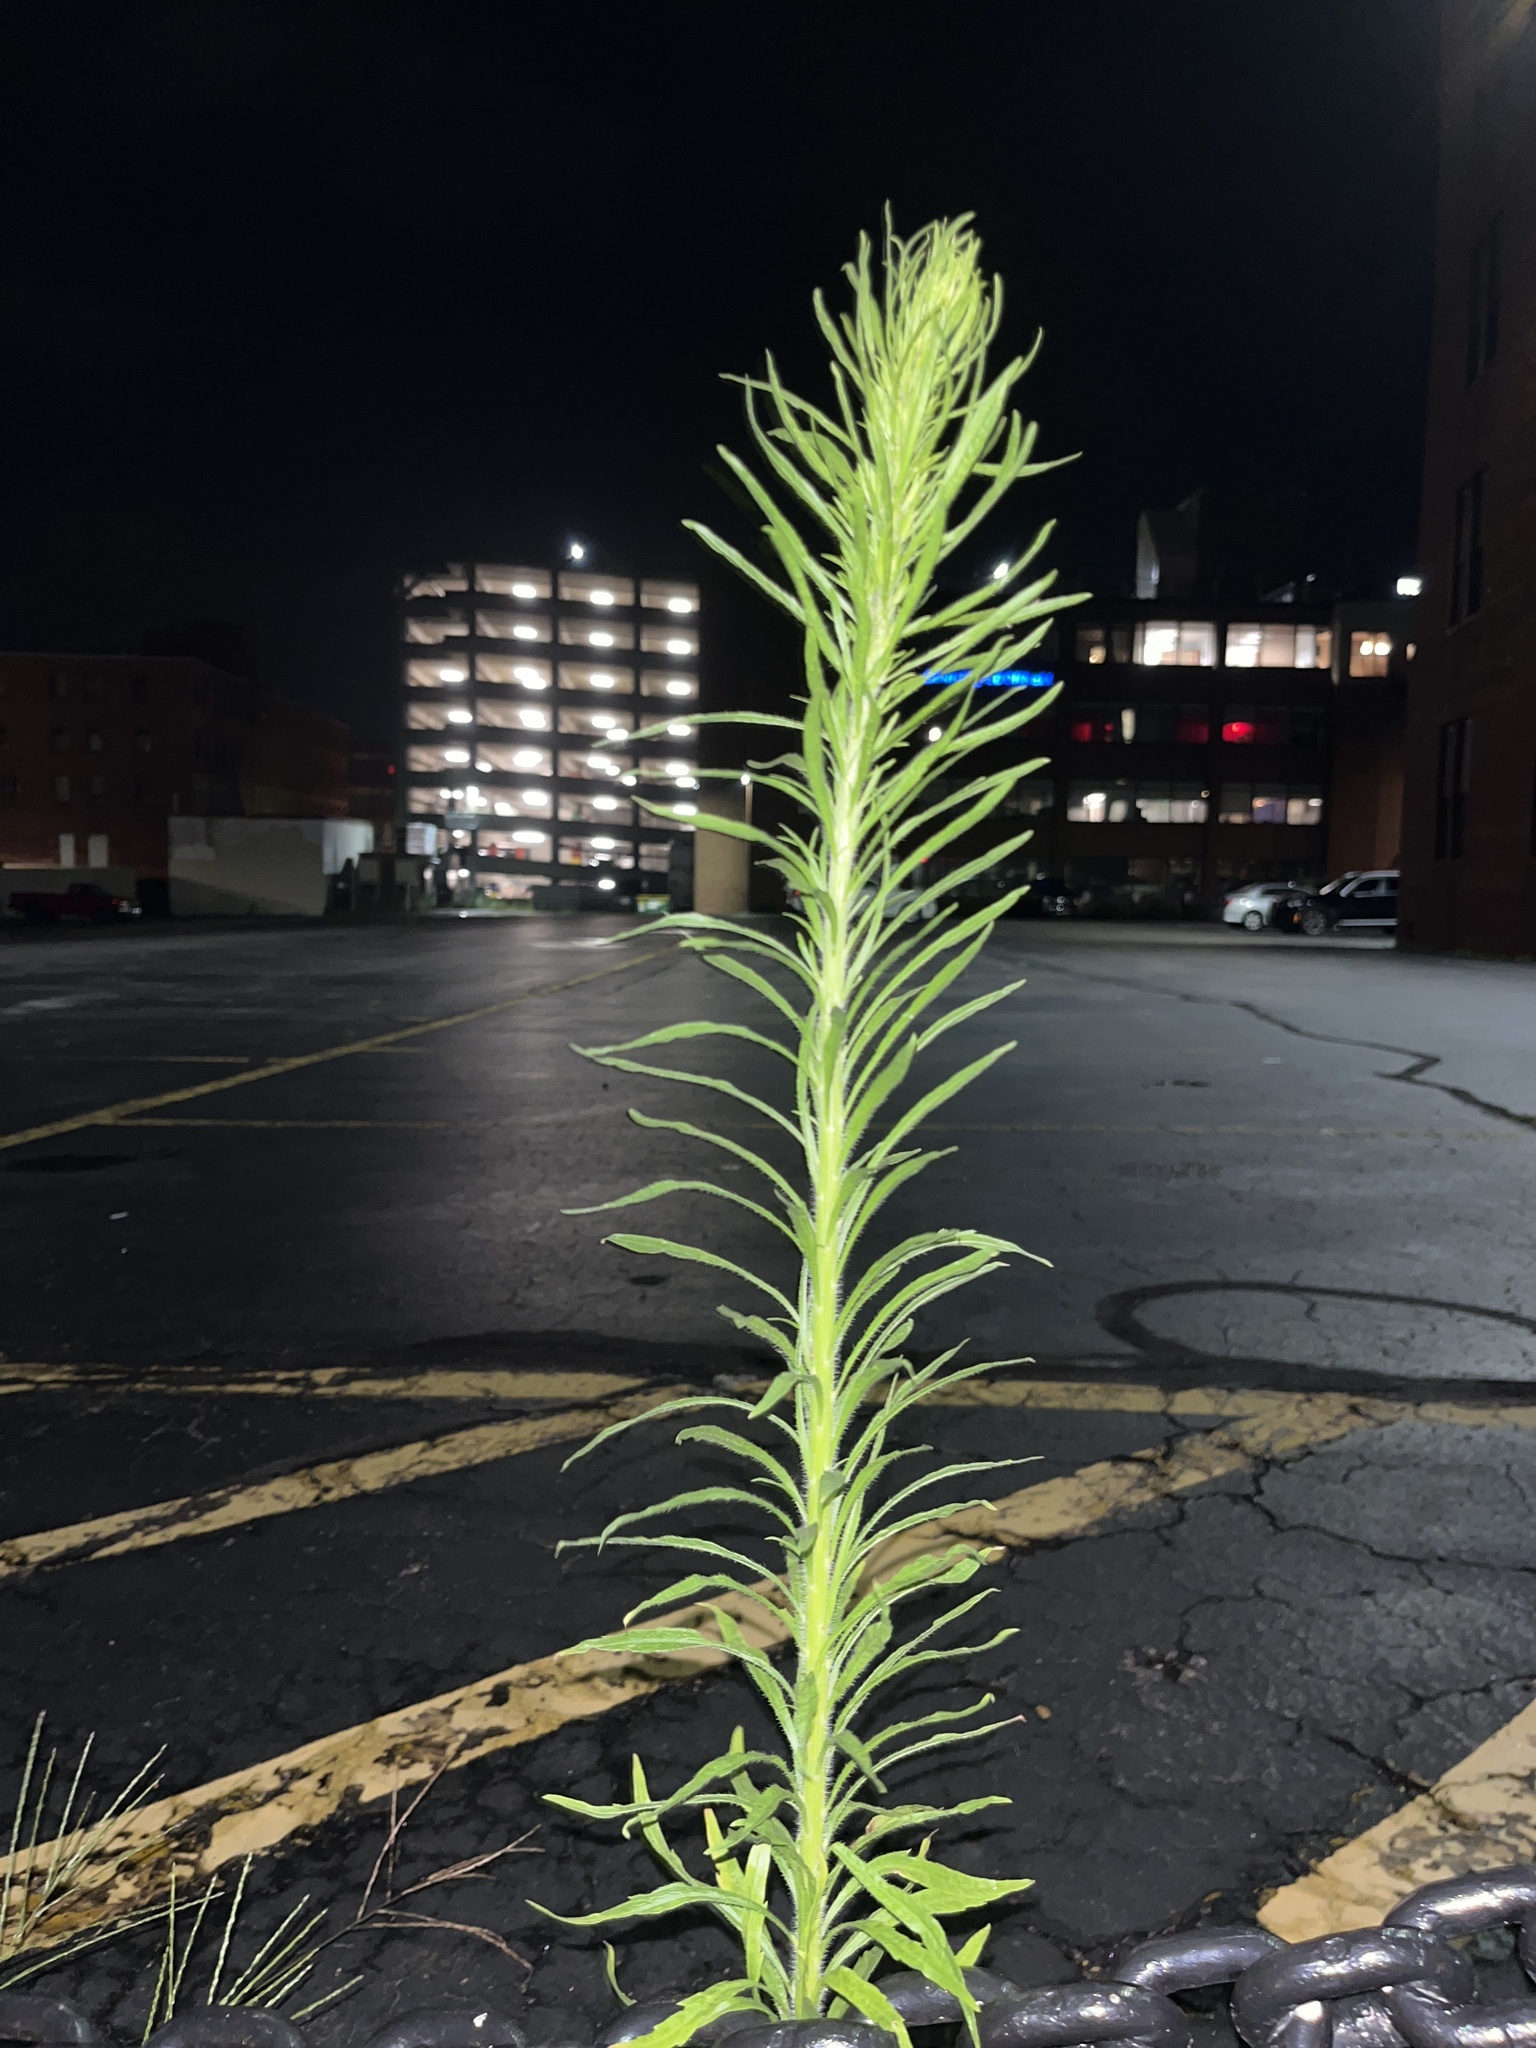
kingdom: Plantae
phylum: Tracheophyta
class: Magnoliopsida
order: Asterales
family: Asteraceae
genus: Erigeron
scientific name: Erigeron canadensis
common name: Canadian fleabane
